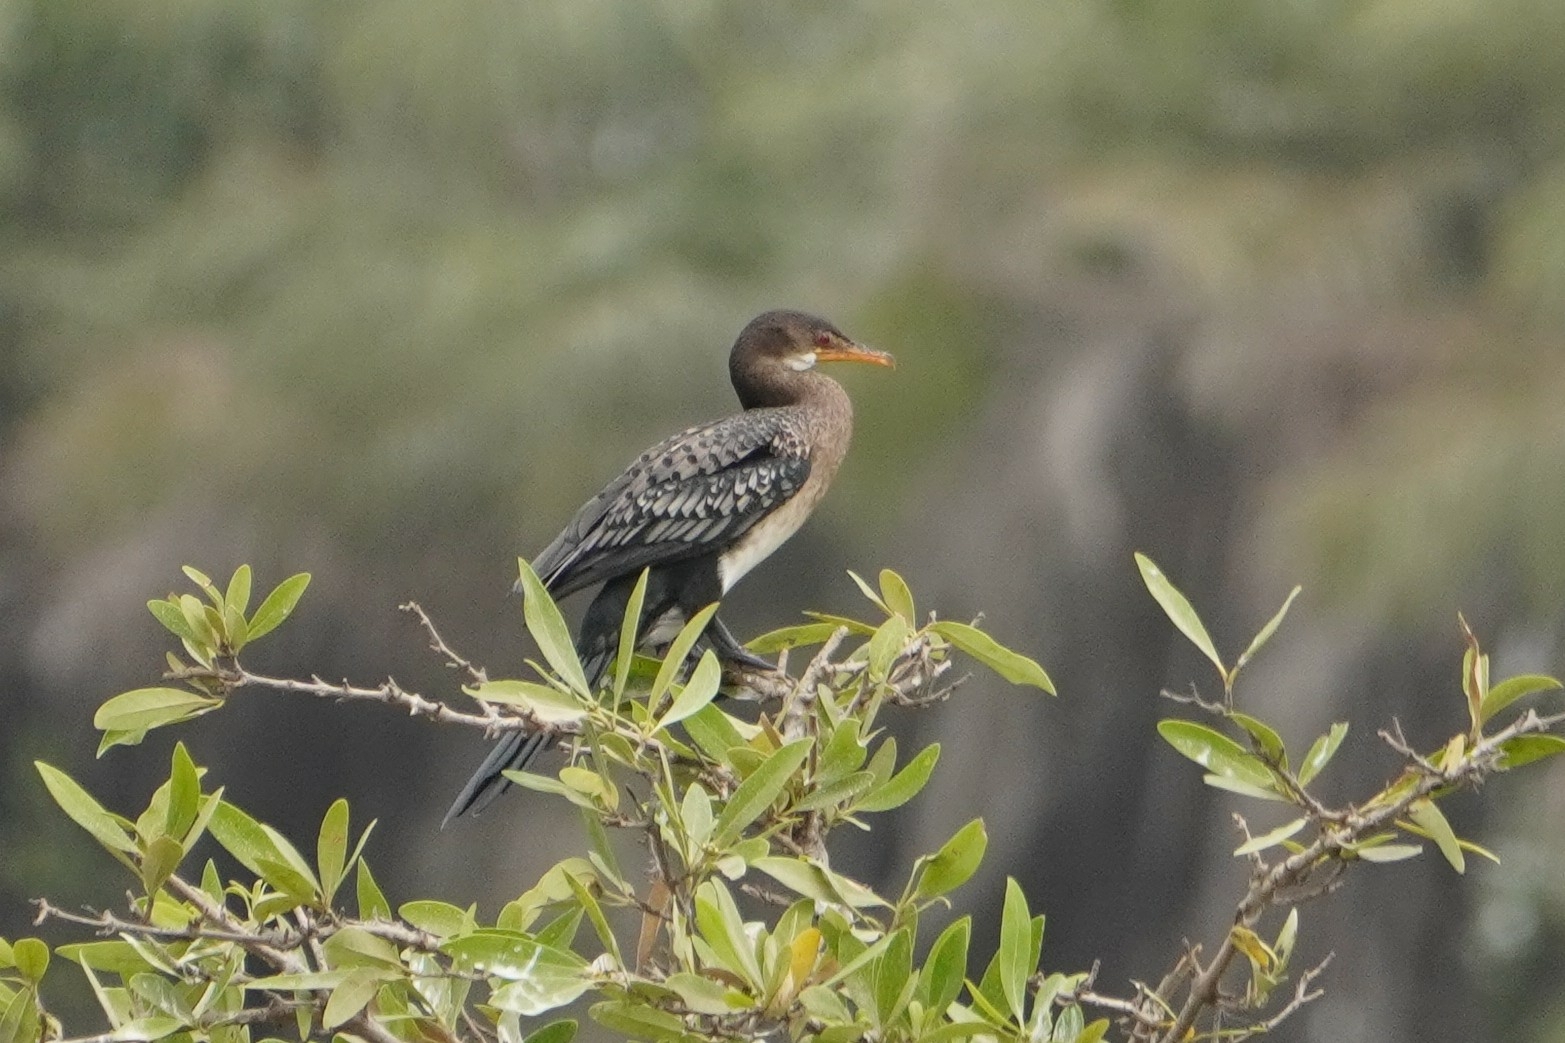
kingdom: Animalia
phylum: Chordata
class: Aves
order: Suliformes
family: Phalacrocoracidae
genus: Microcarbo
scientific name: Microcarbo africanus
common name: Long-tailed cormorant
